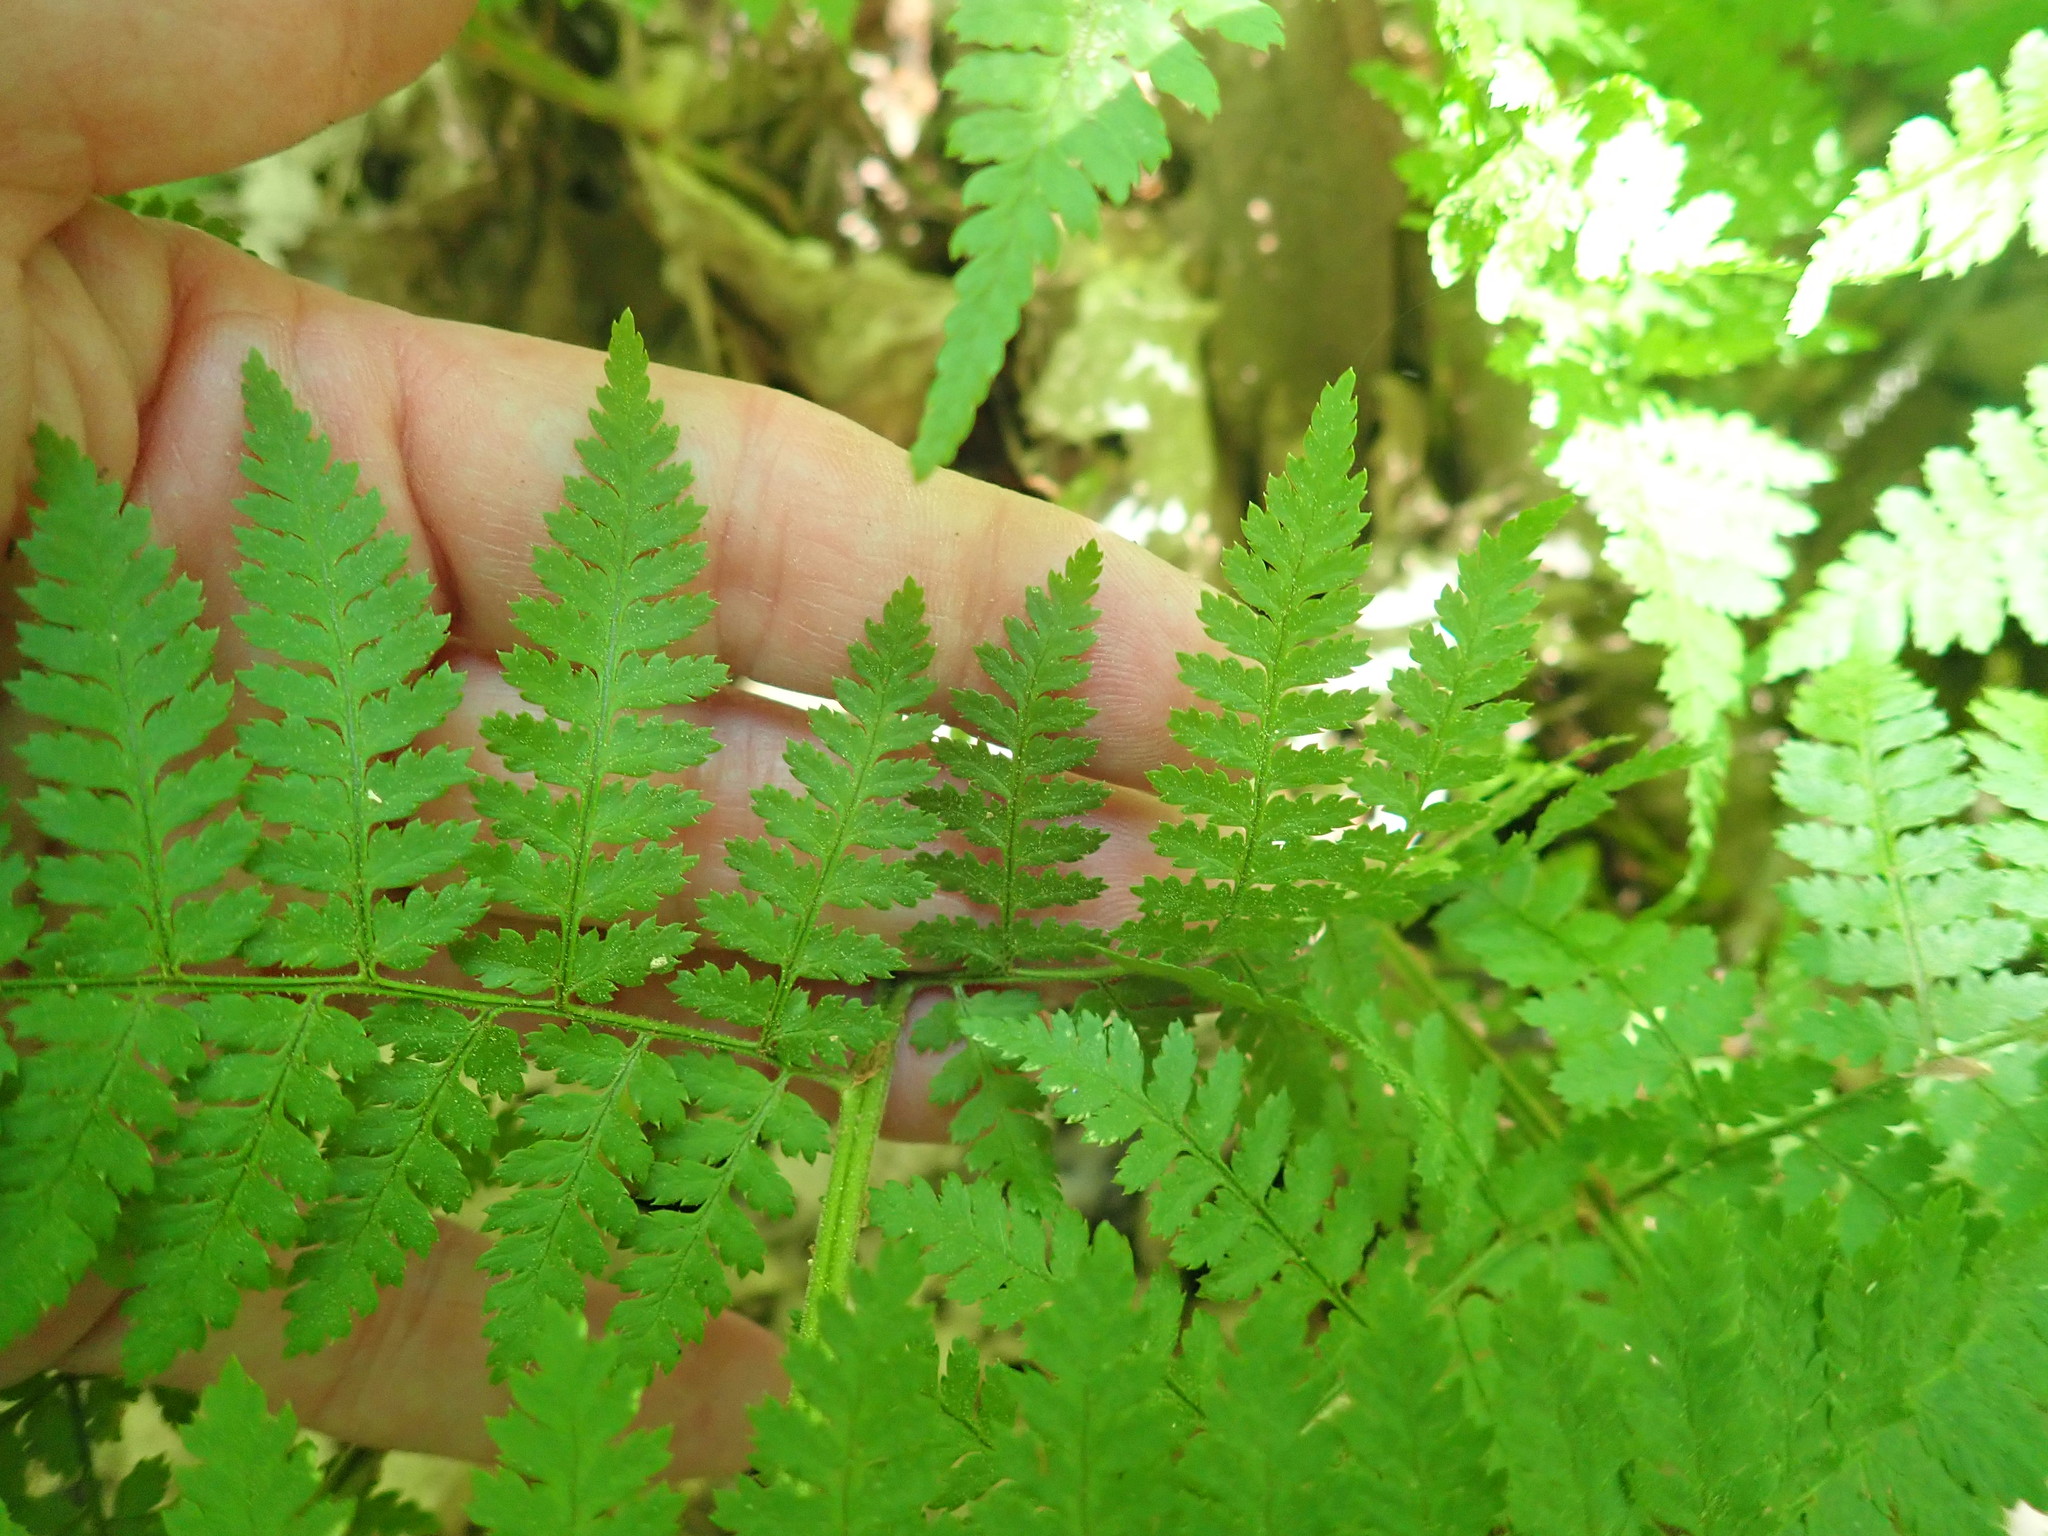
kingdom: Plantae
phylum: Tracheophyta
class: Polypodiopsida
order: Polypodiales
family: Dryopteridaceae
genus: Dryopteris
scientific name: Dryopteris intermedia
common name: Evergreen wood fern
